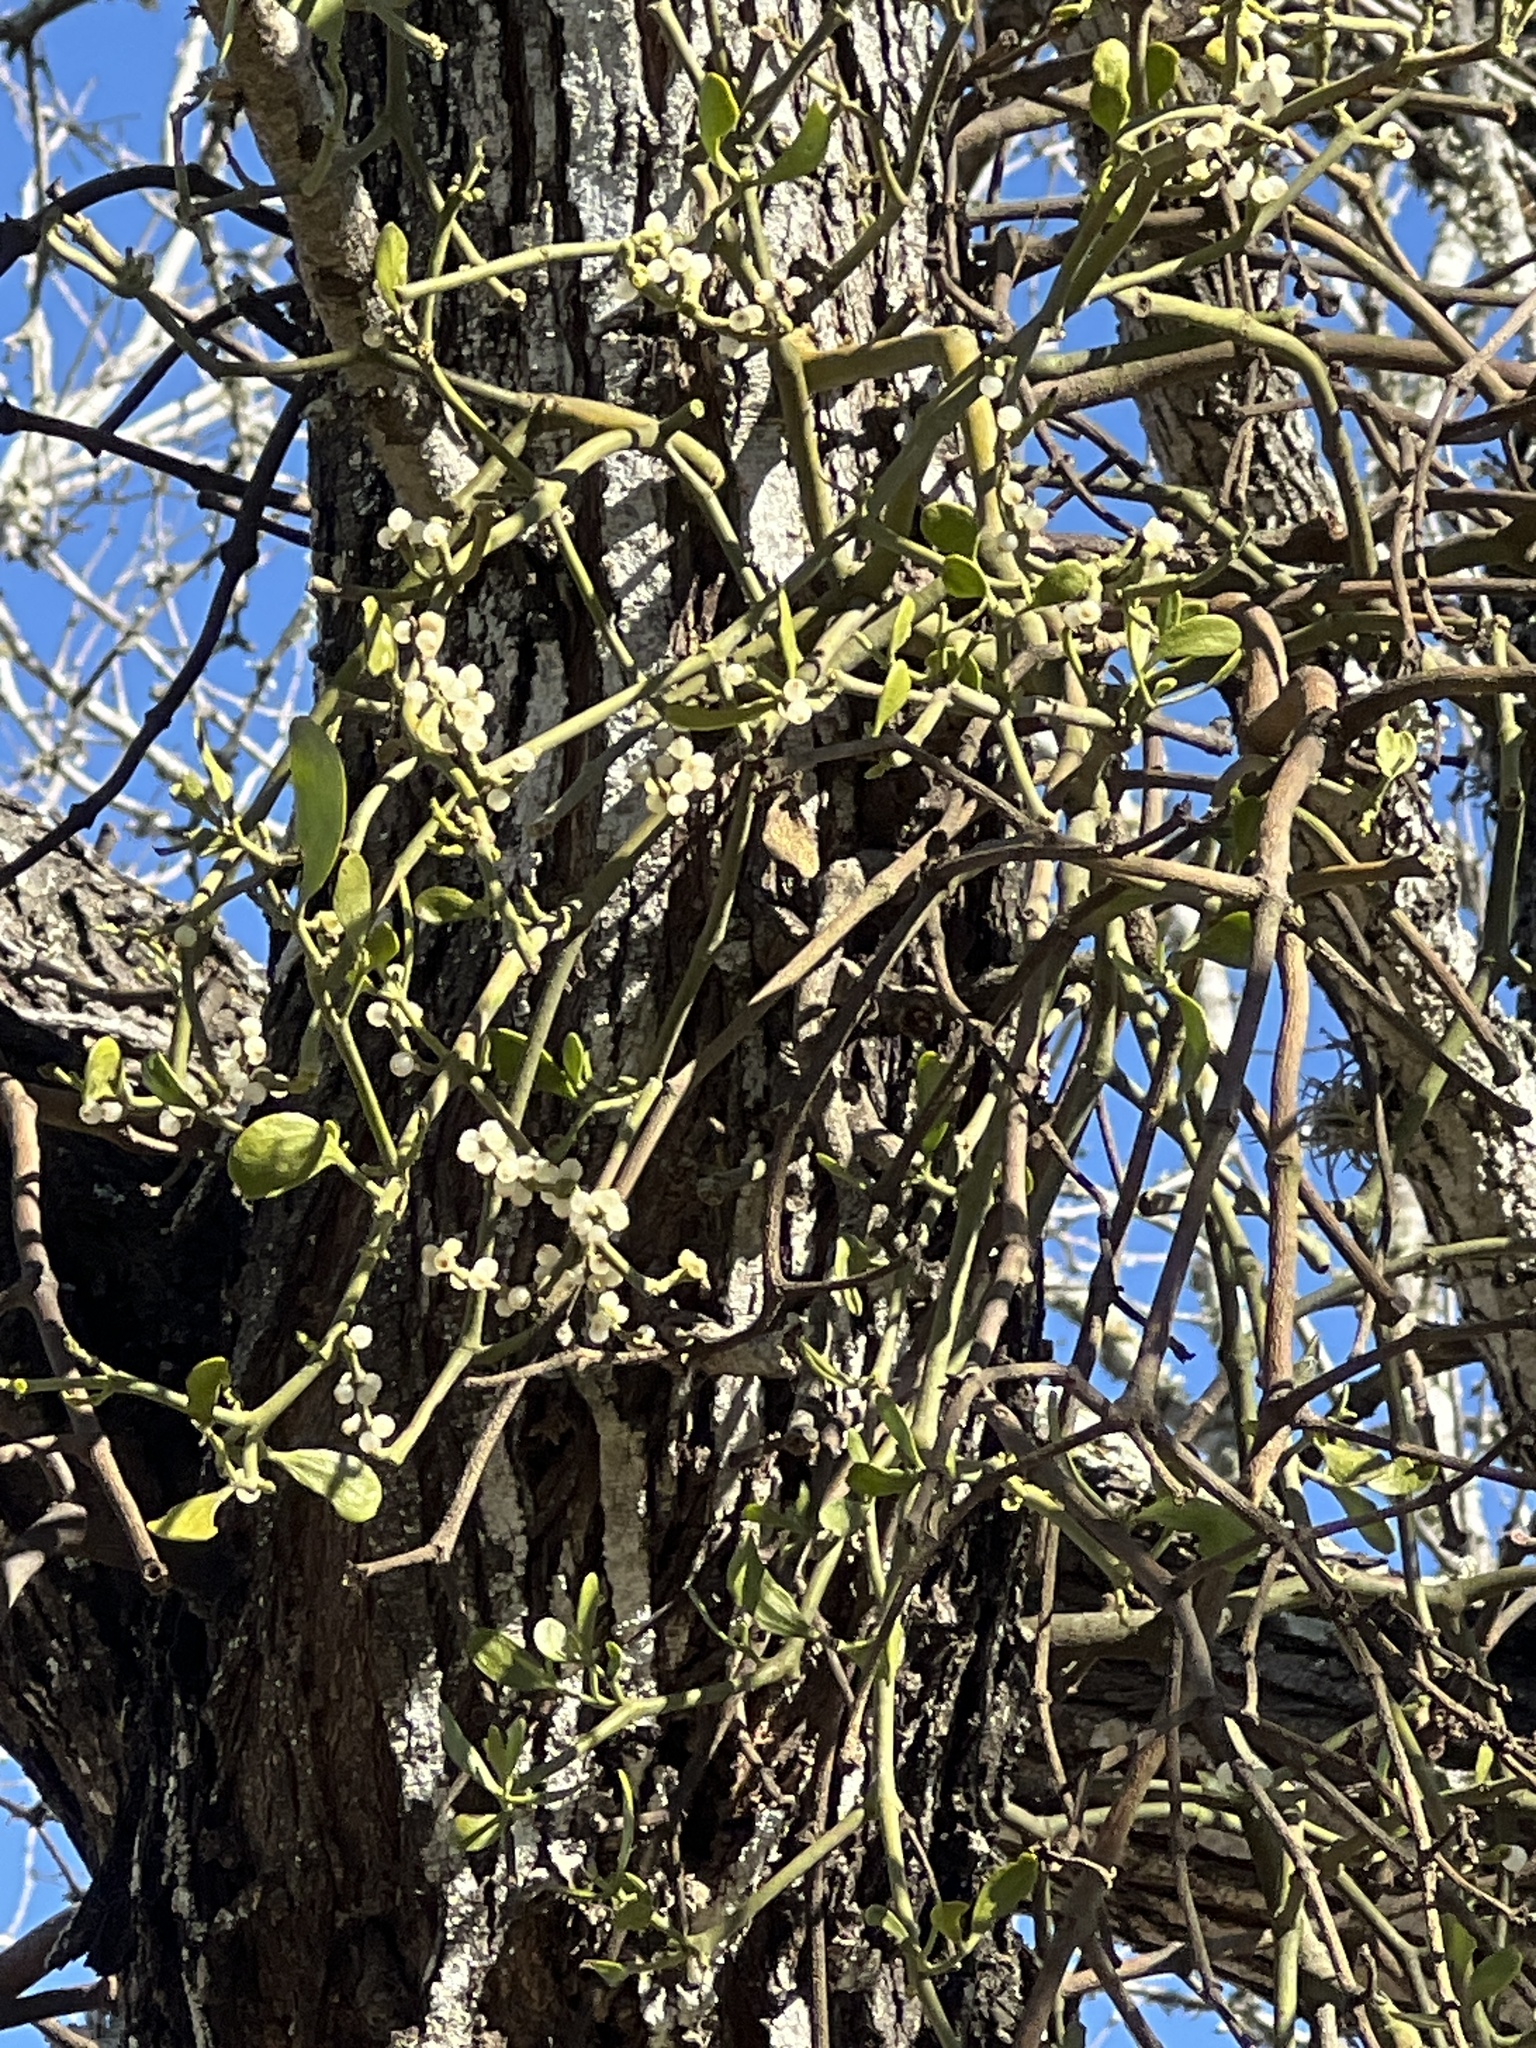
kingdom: Plantae
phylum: Tracheophyta
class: Magnoliopsida
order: Santalales
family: Viscaceae
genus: Phoradendron
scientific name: Phoradendron leucarpum
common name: Pacific mistletoe
